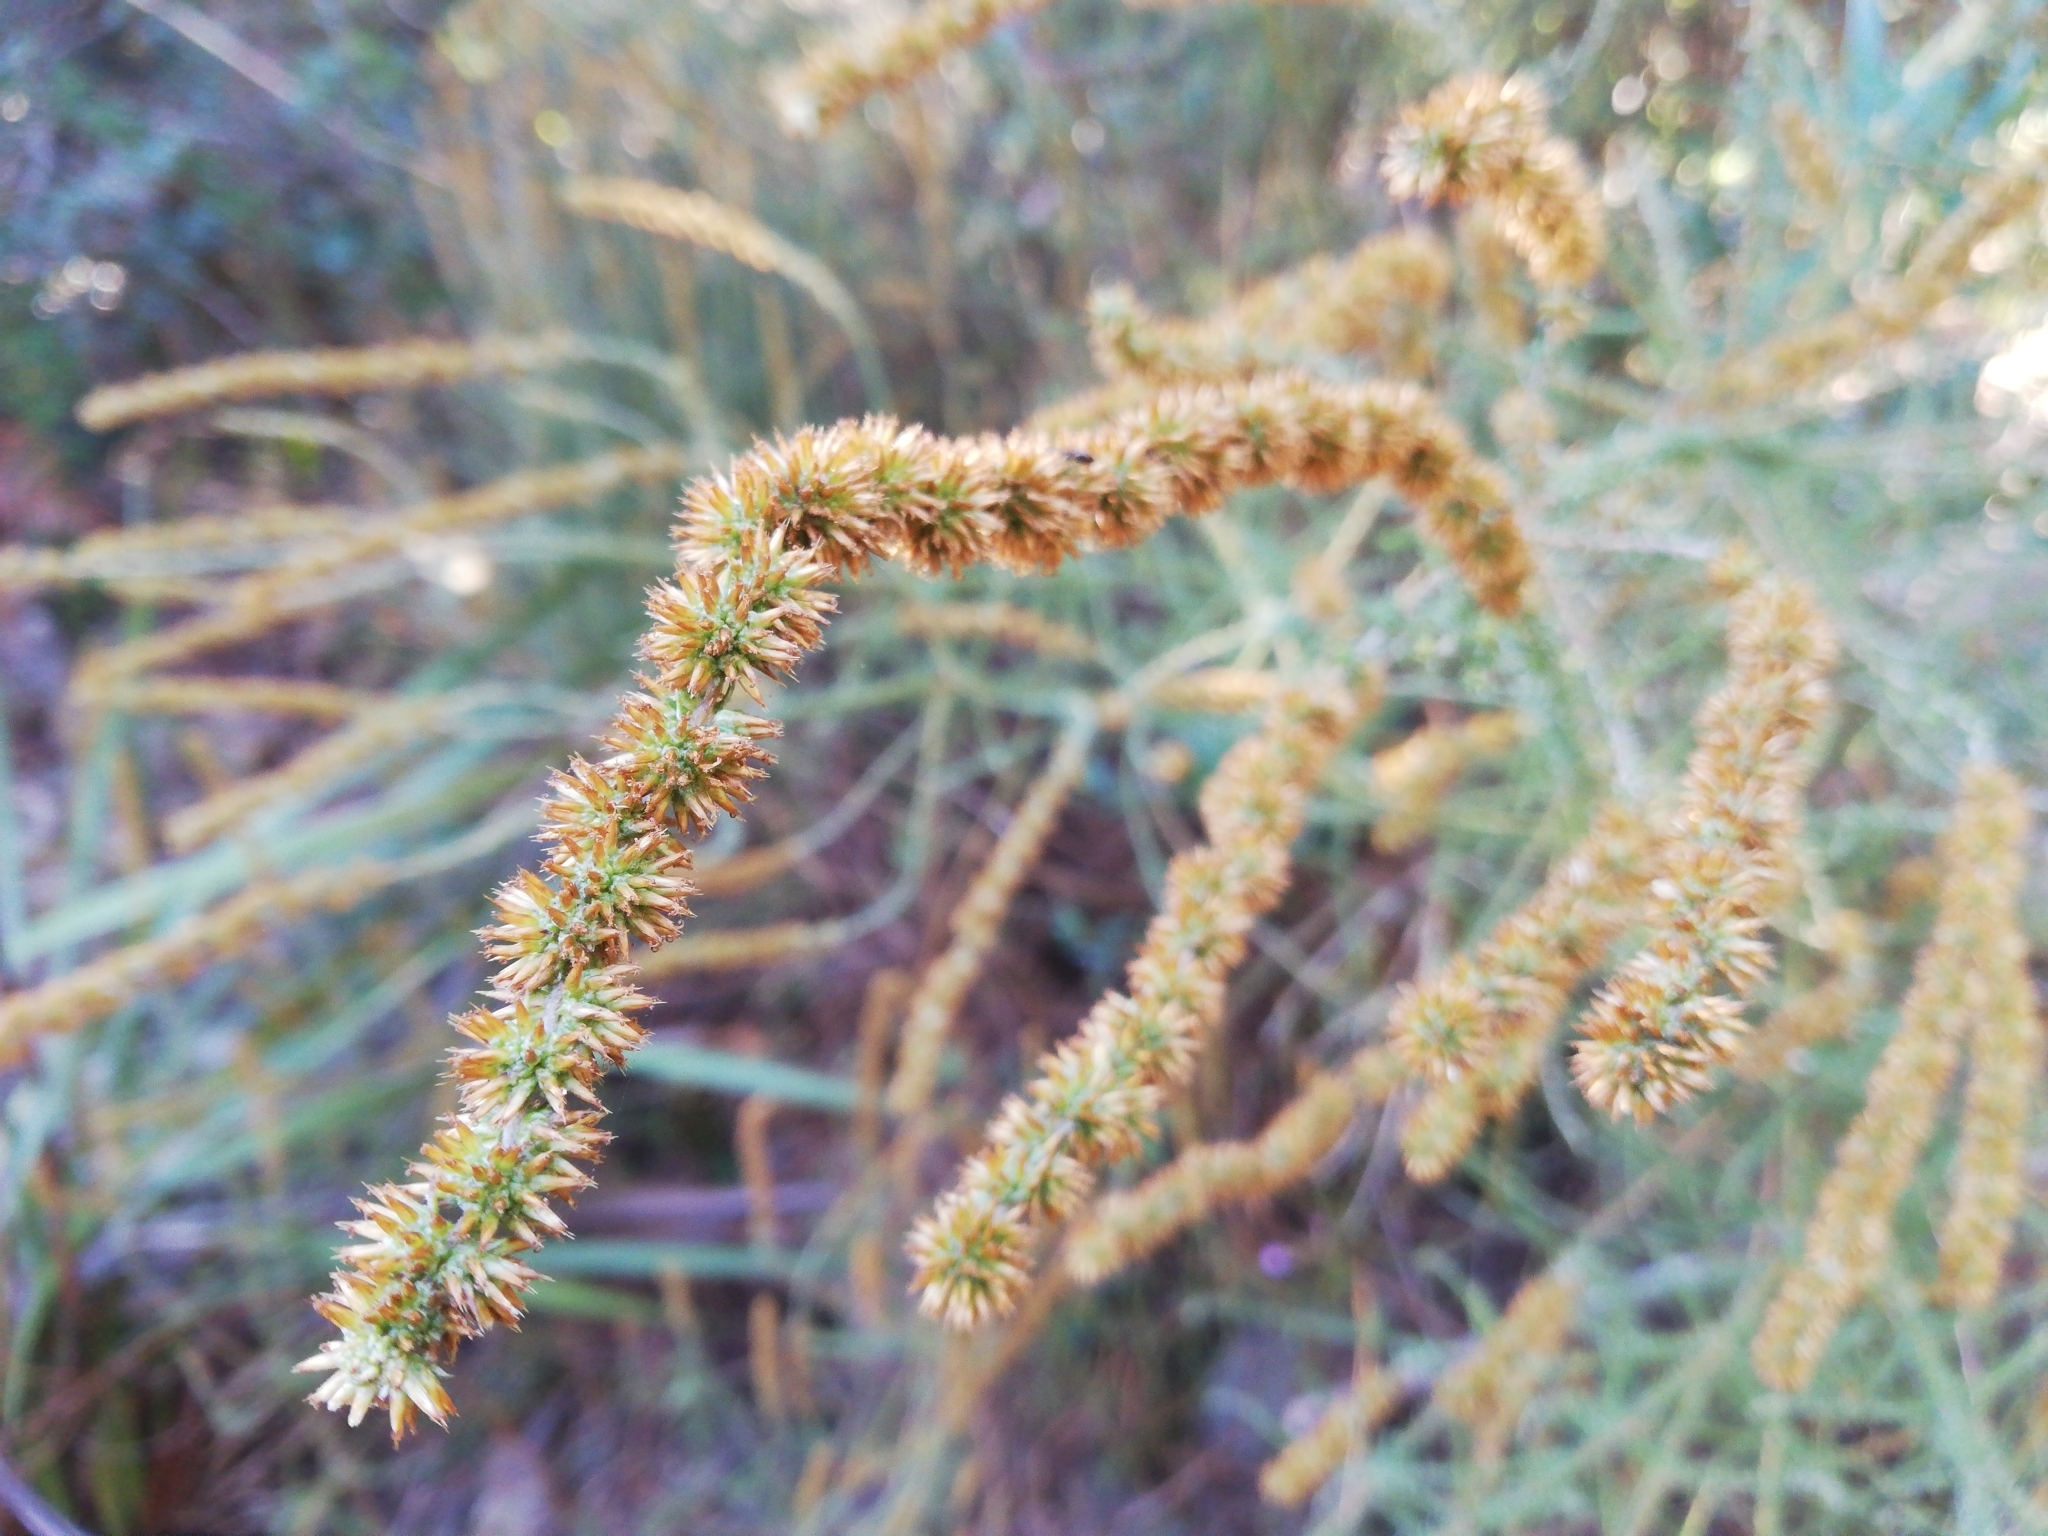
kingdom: Plantae
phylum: Tracheophyta
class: Magnoliopsida
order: Asterales
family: Asteraceae
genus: Seriphium
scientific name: Seriphium plumosum
